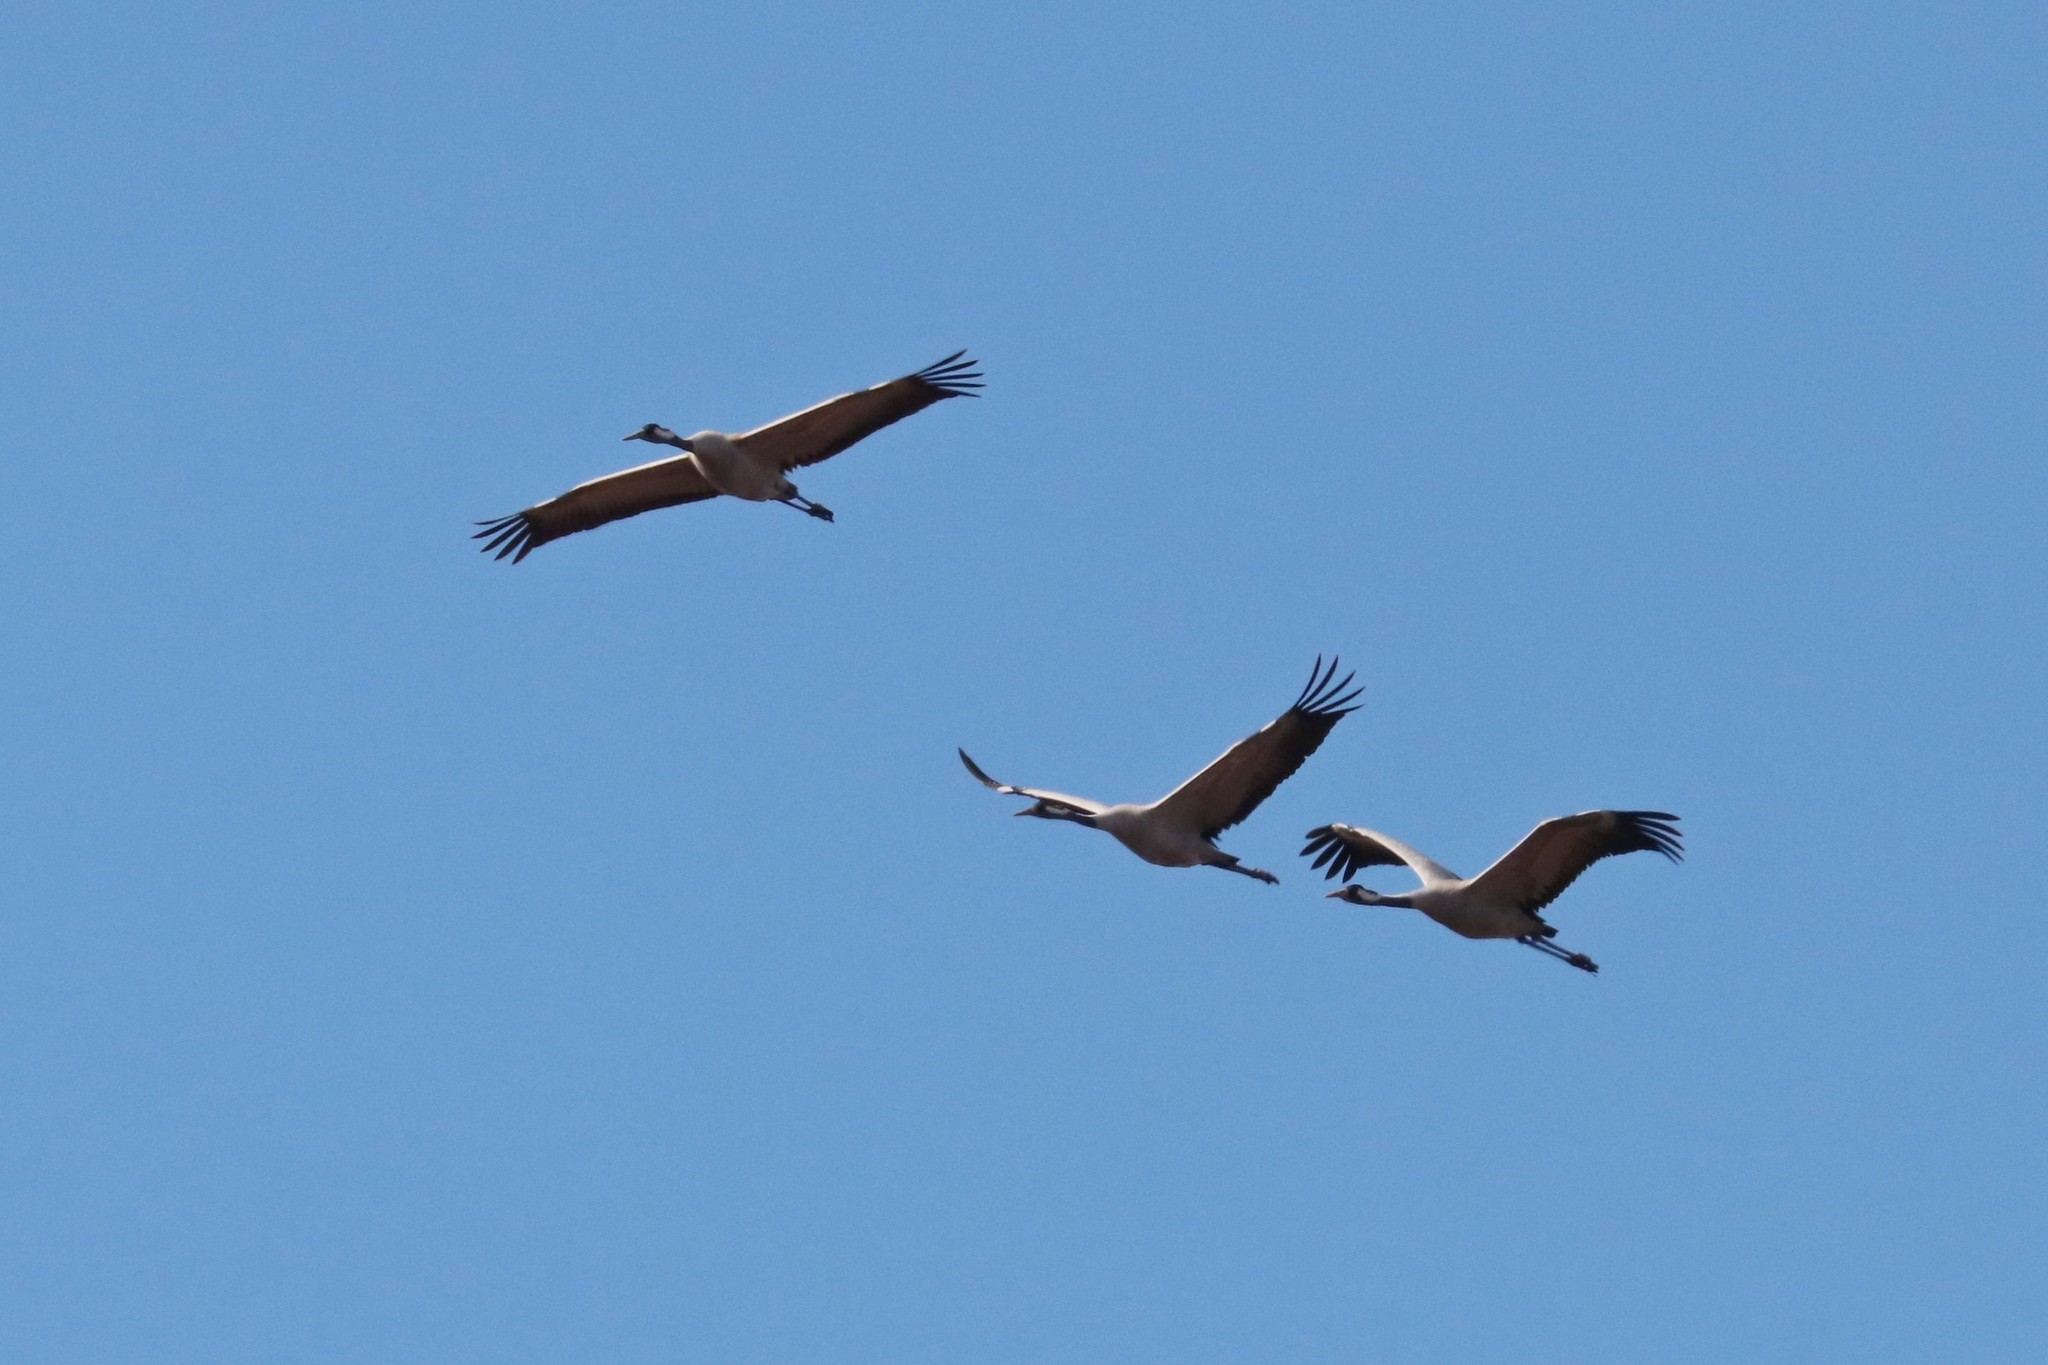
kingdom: Animalia
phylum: Chordata
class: Aves
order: Gruiformes
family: Gruidae
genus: Grus
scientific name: Grus grus
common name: Common crane
